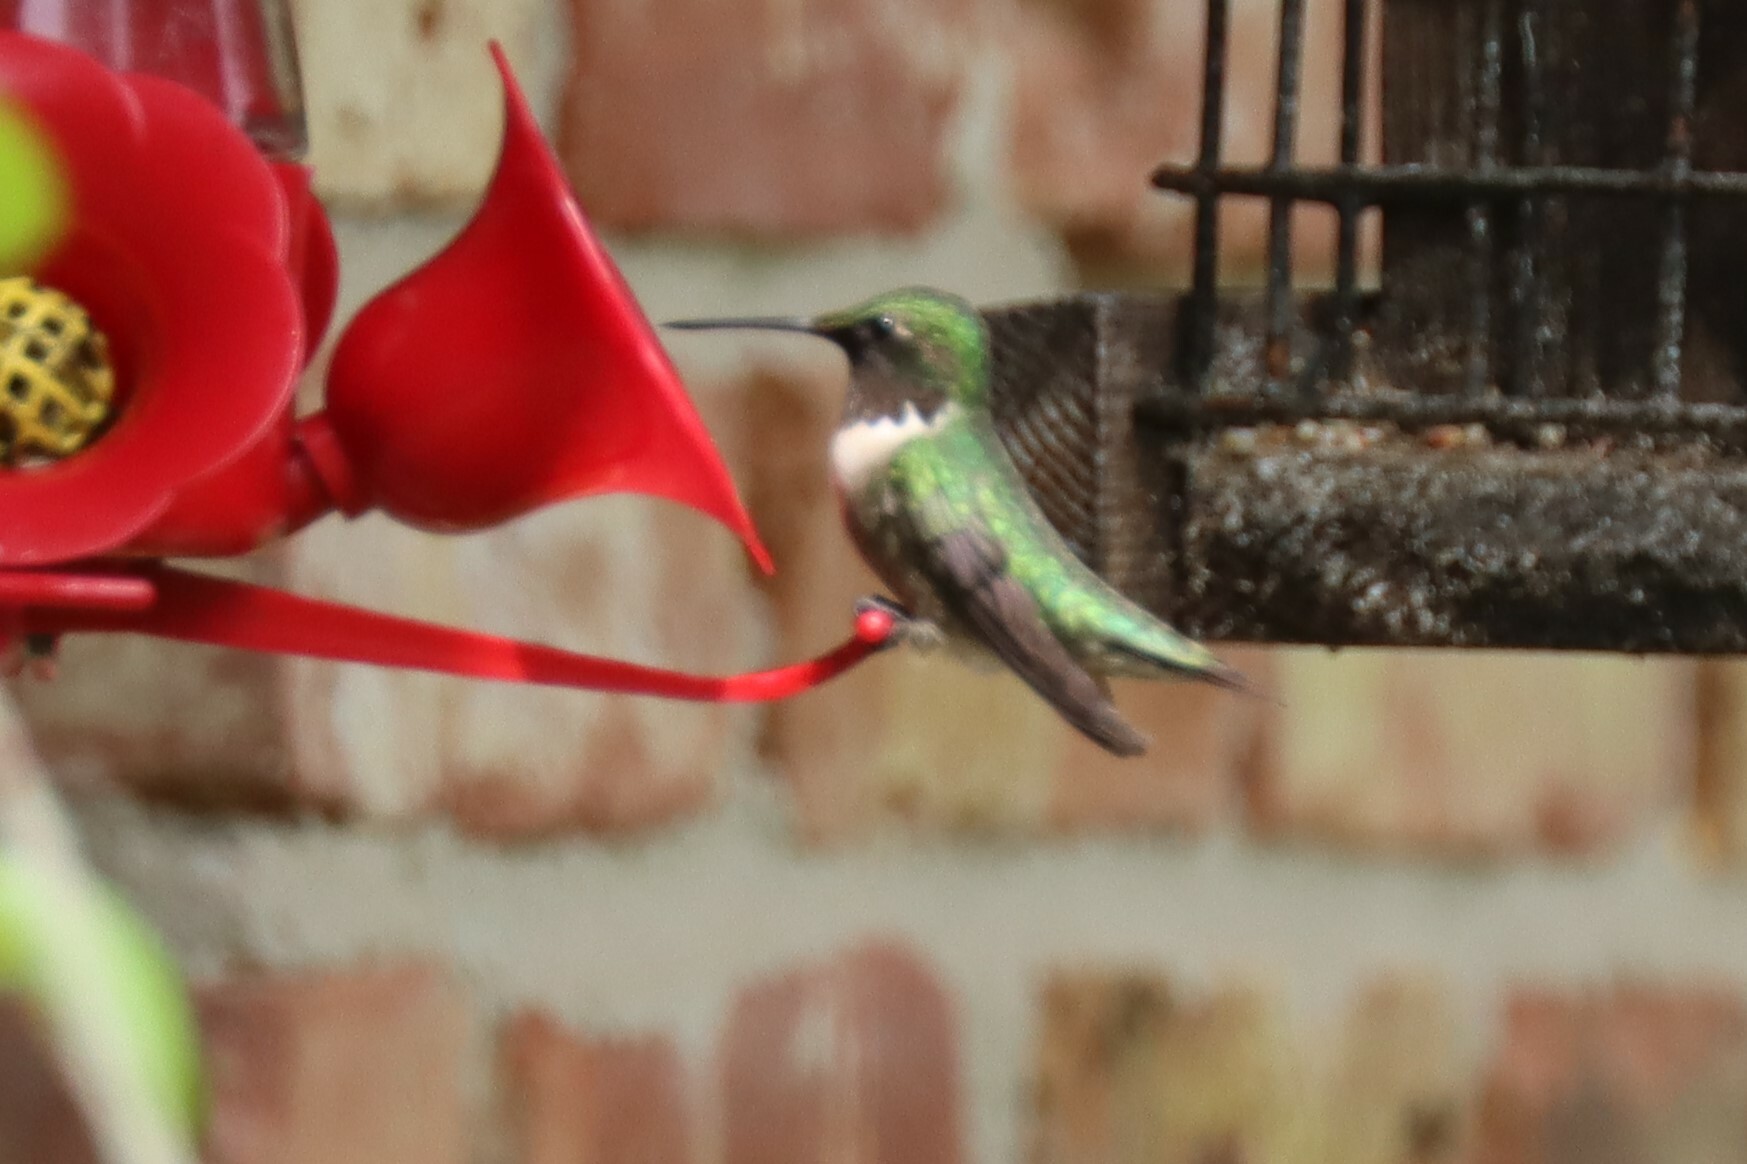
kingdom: Animalia
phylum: Chordata
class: Aves
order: Apodiformes
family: Trochilidae
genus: Archilochus
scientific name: Archilochus colubris
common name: Ruby-throated hummingbird
